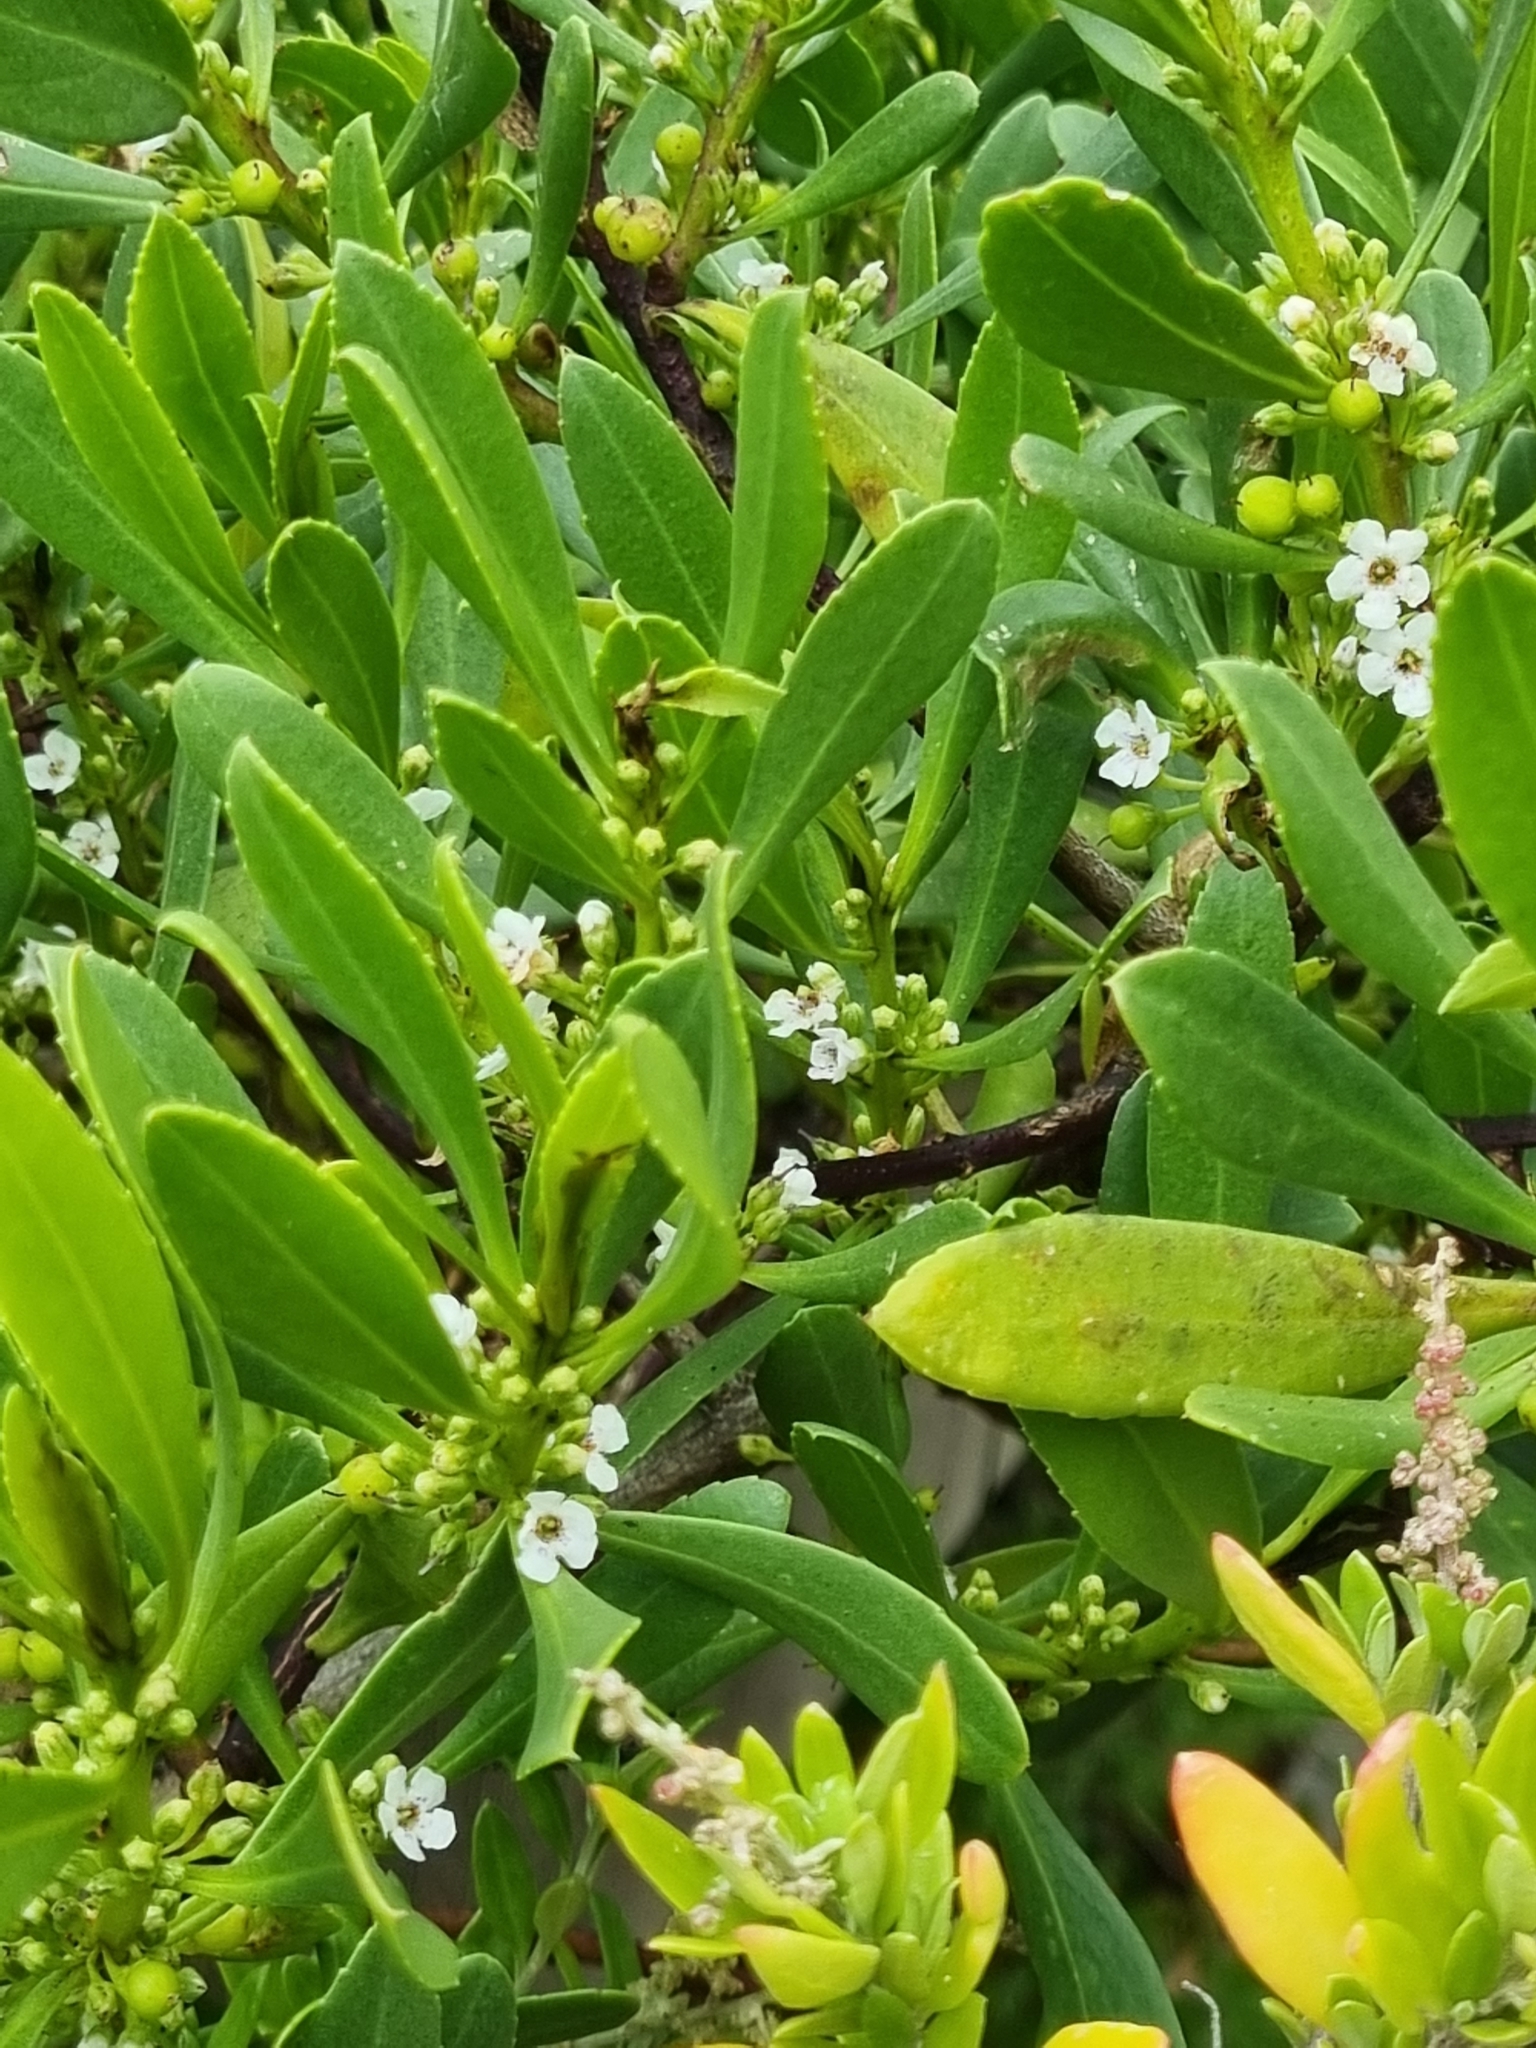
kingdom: Plantae
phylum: Tracheophyta
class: Magnoliopsida
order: Lamiales
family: Scrophulariaceae
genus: Myoporum
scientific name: Myoporum insulare
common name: Common boobialla
